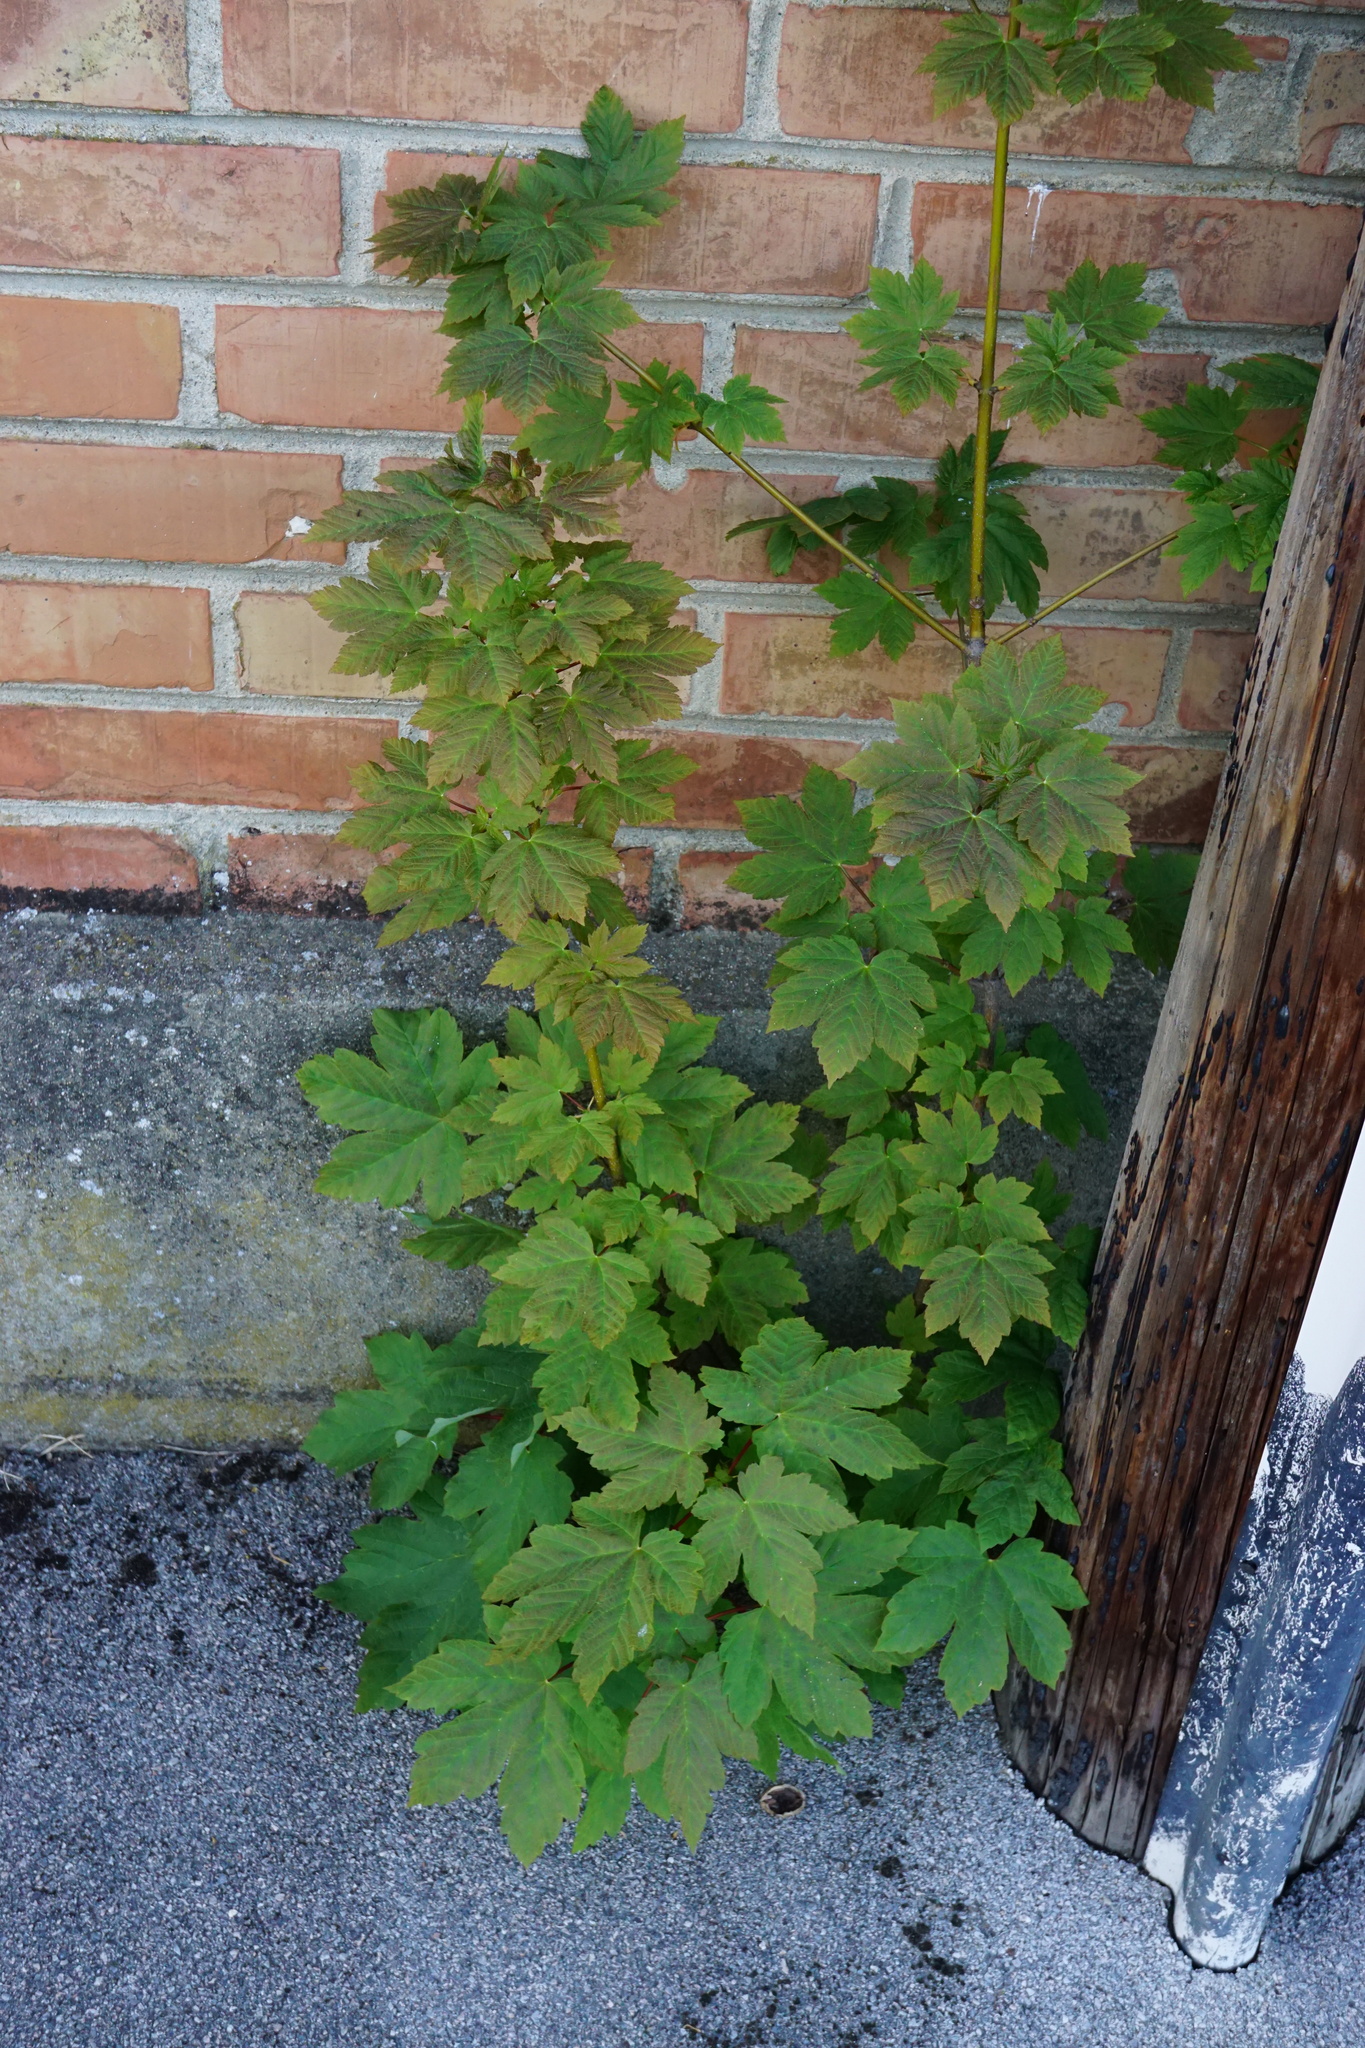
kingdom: Plantae
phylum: Tracheophyta
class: Magnoliopsida
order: Sapindales
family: Sapindaceae
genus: Acer
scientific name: Acer pseudoplatanus
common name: Sycamore
